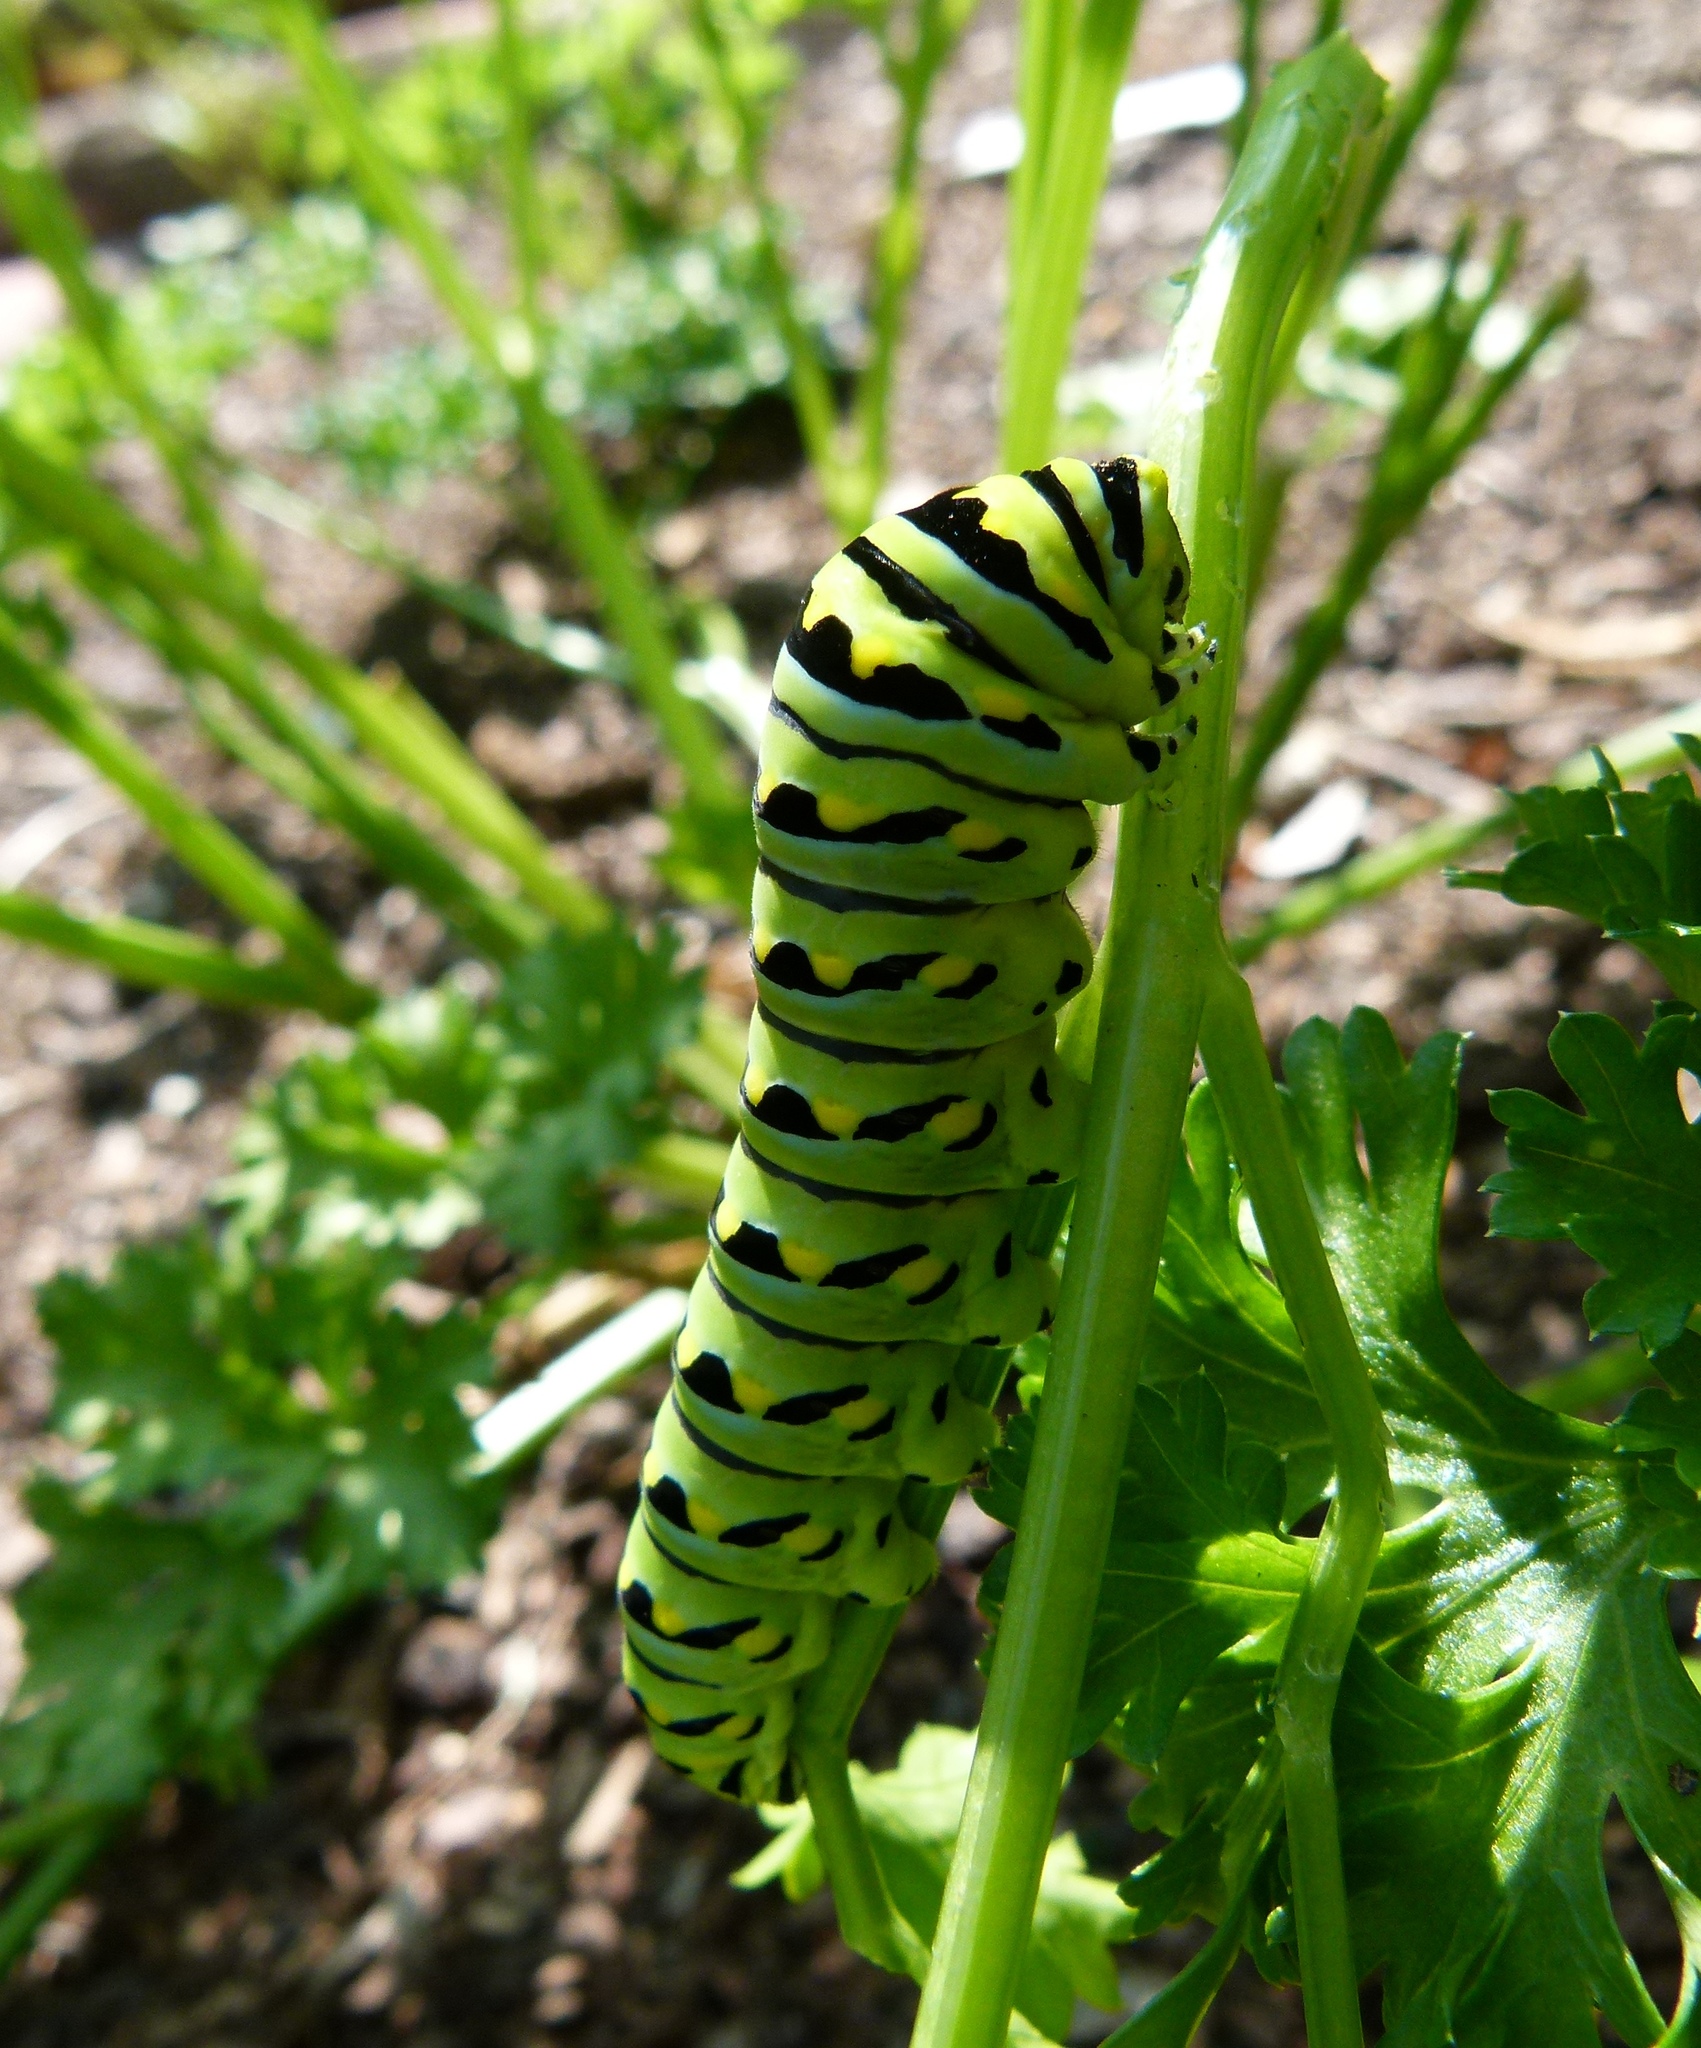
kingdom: Animalia
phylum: Arthropoda
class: Insecta
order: Lepidoptera
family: Papilionidae
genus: Papilio
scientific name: Papilio polyxenes
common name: Black swallowtail
